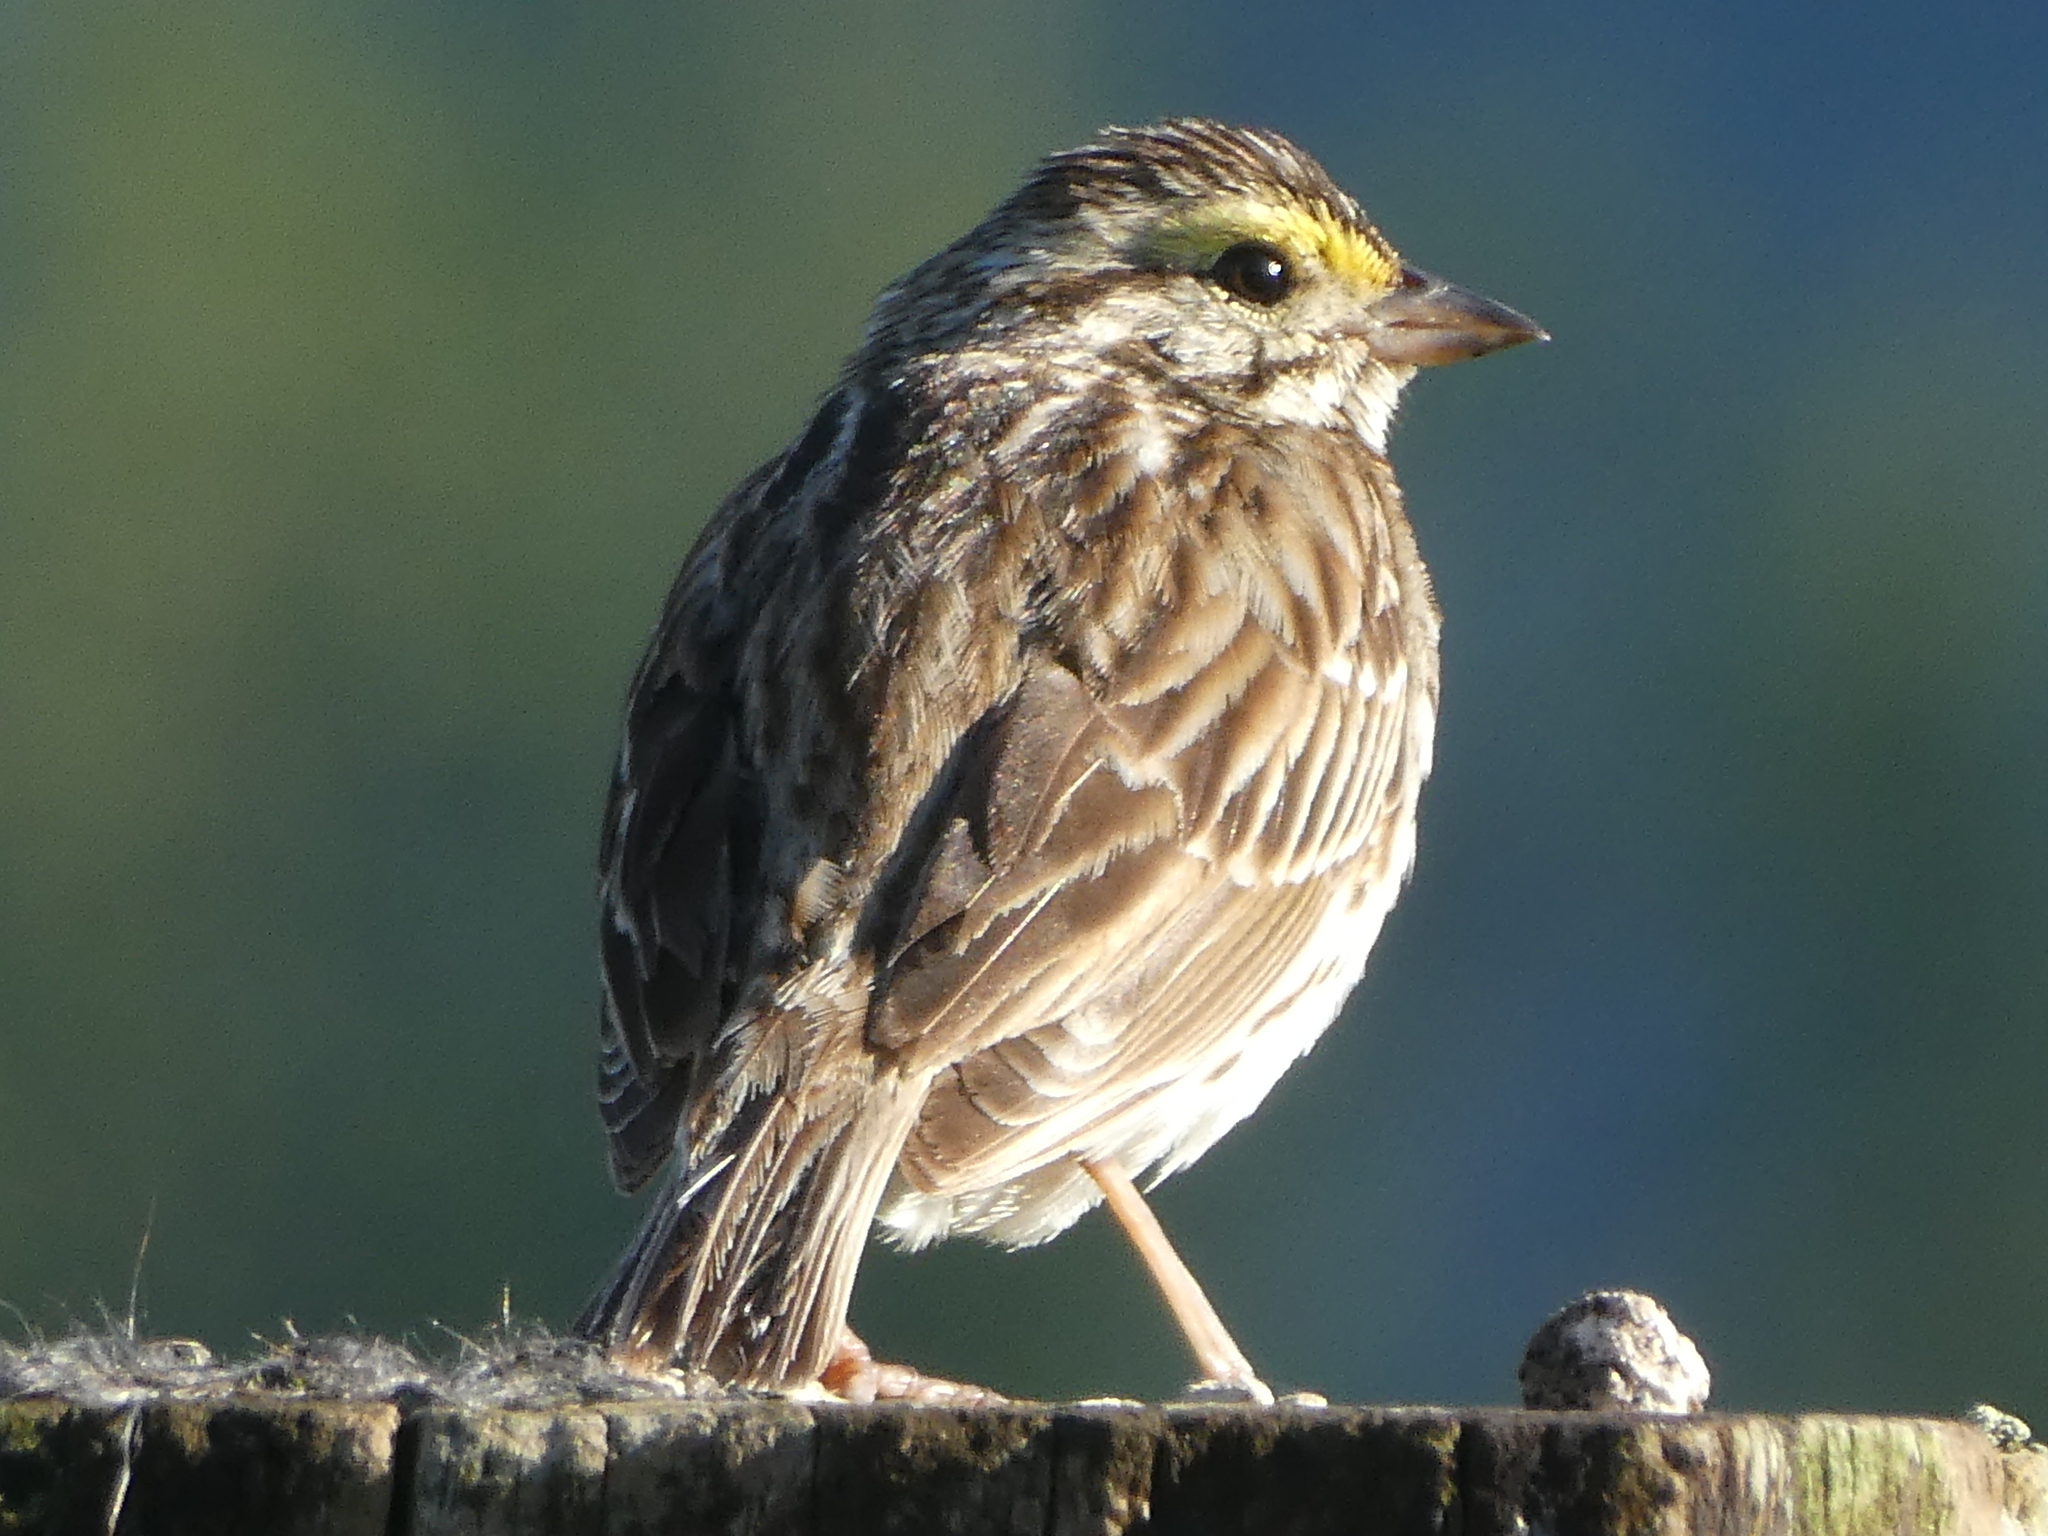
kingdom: Animalia
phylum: Chordata
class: Aves
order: Passeriformes
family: Passerellidae
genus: Passerculus
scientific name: Passerculus sandwichensis
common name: Savannah sparrow
